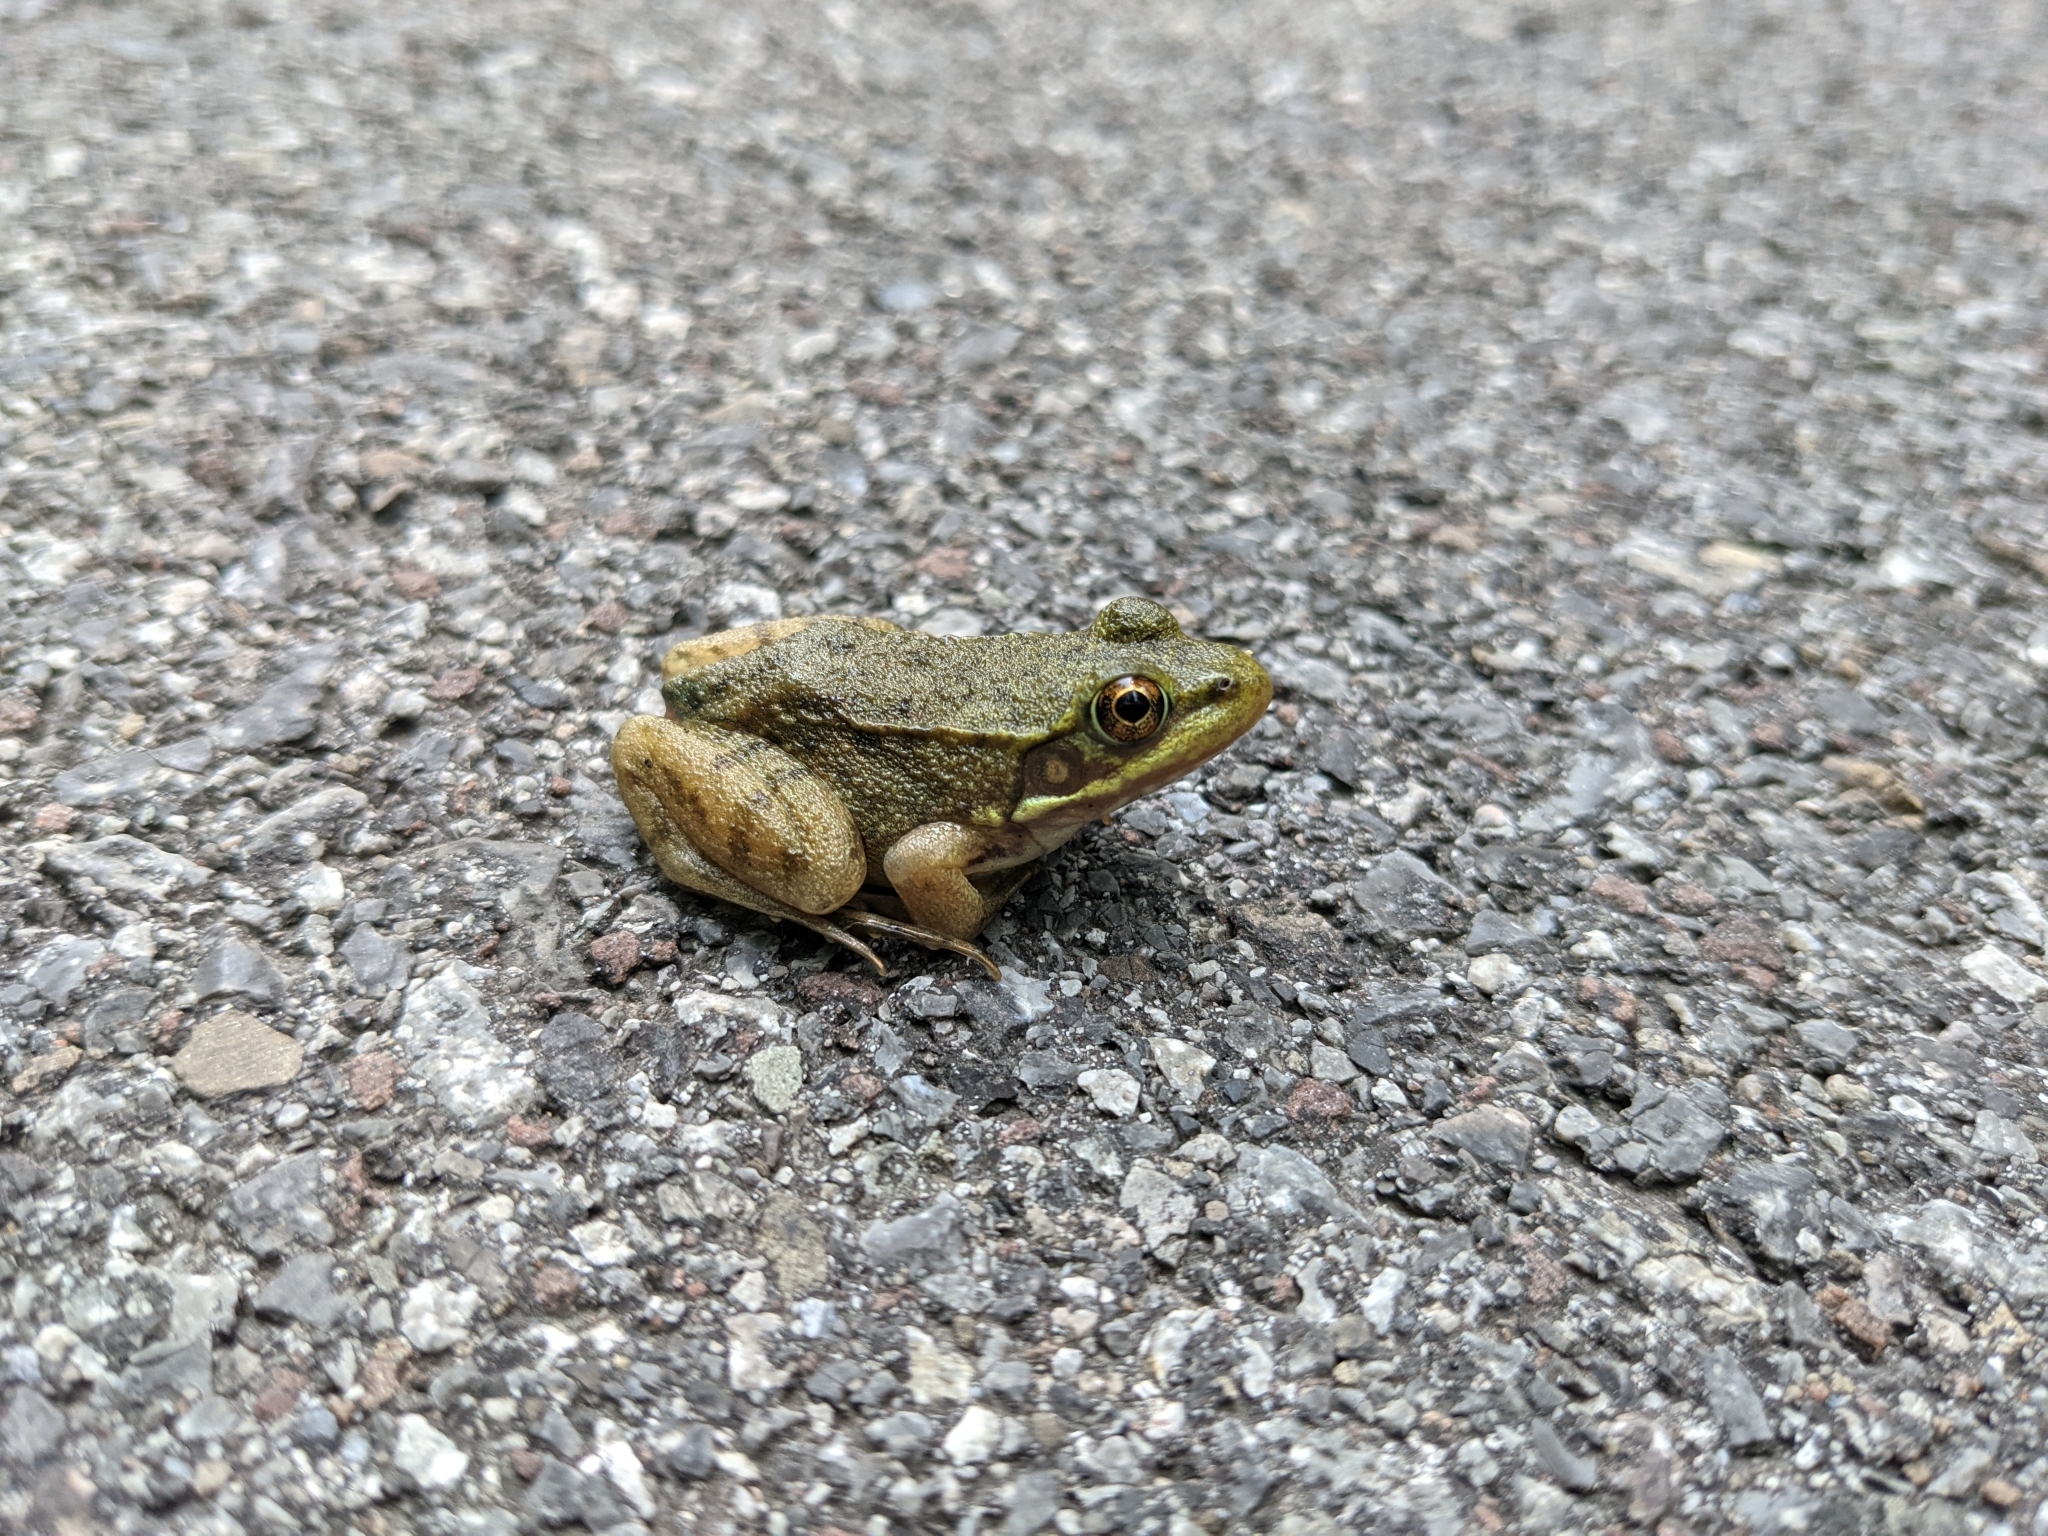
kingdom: Animalia
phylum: Chordata
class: Amphibia
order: Anura
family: Ranidae
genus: Lithobates
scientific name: Lithobates clamitans
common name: Green frog
